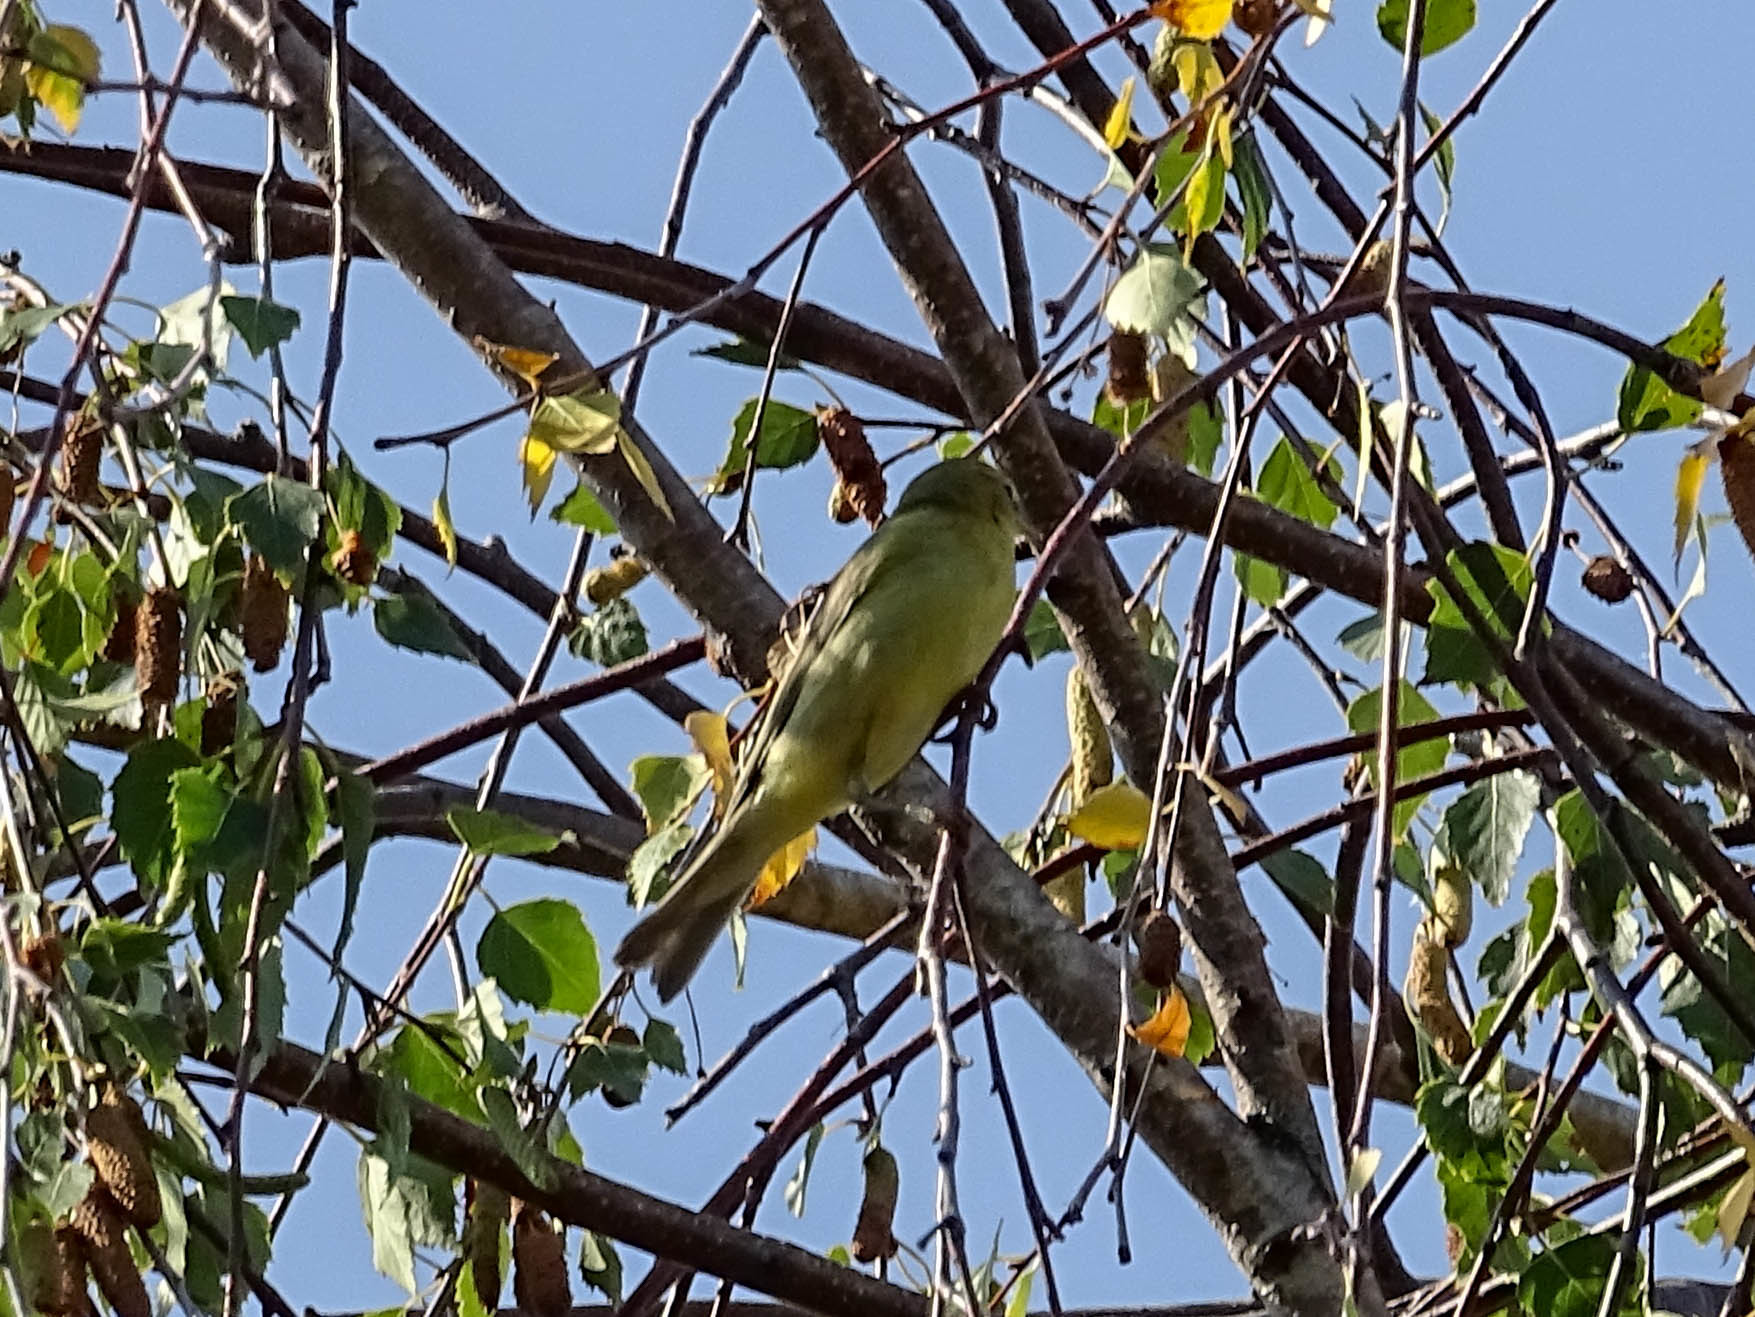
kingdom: Animalia
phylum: Chordata
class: Aves
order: Passeriformes
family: Phylloscopidae
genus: Phylloscopus
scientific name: Phylloscopus trochilus
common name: Willow warbler
